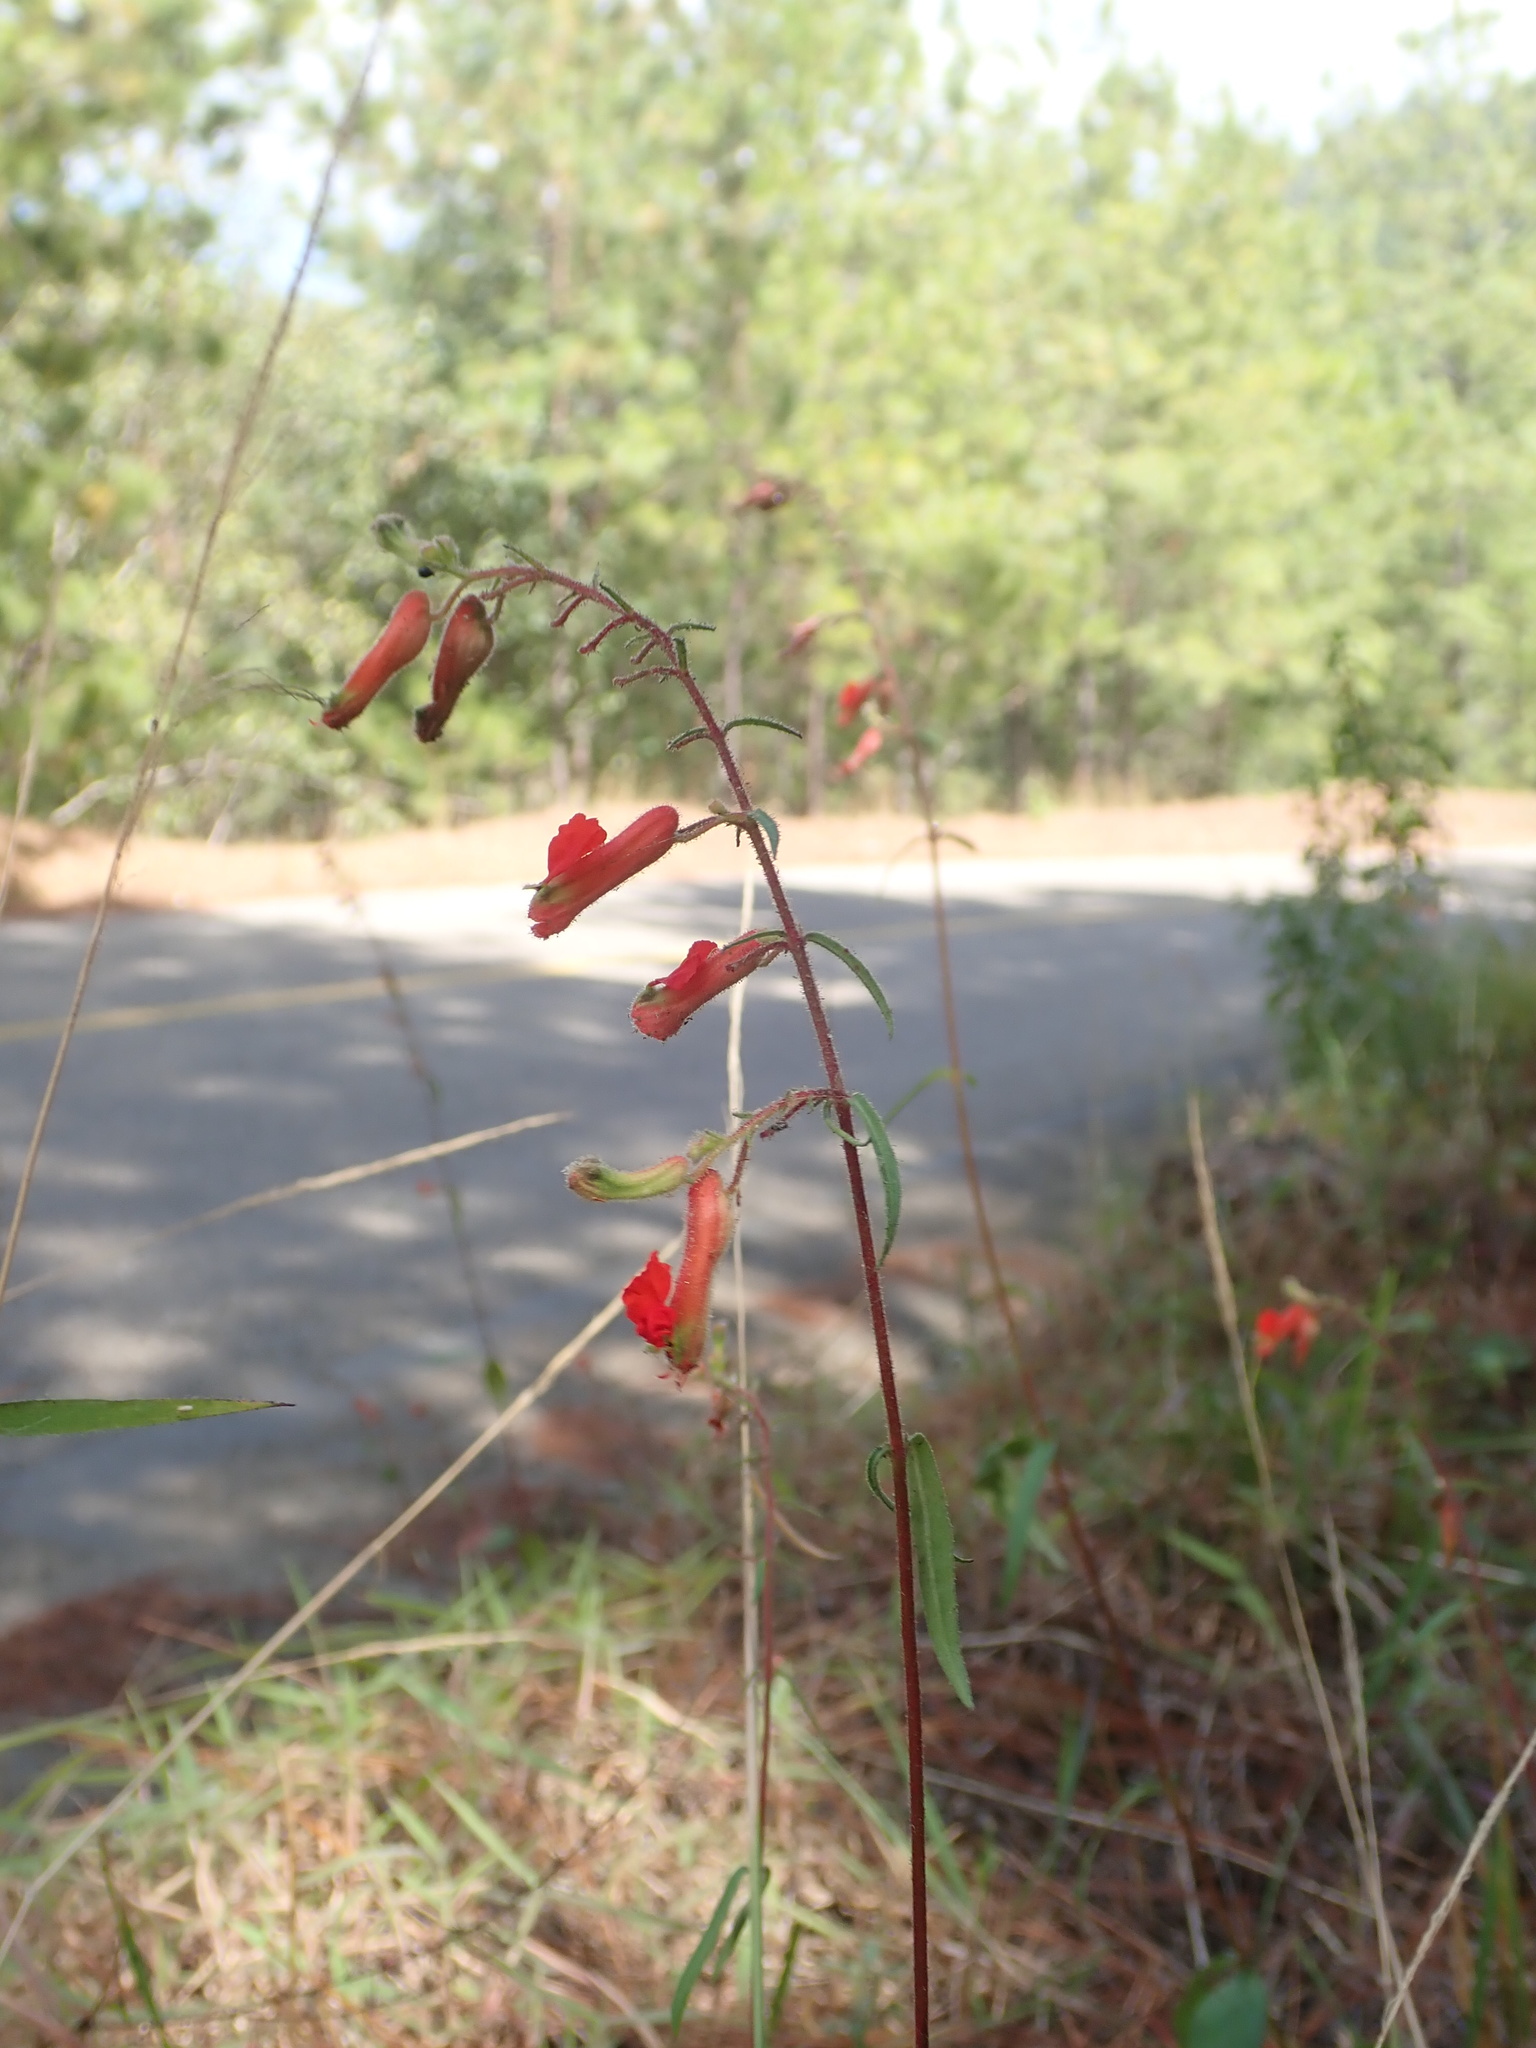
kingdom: Plantae
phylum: Tracheophyta
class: Magnoliopsida
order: Myrtales
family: Lythraceae
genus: Cuphea
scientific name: Cuphea hookeriana
